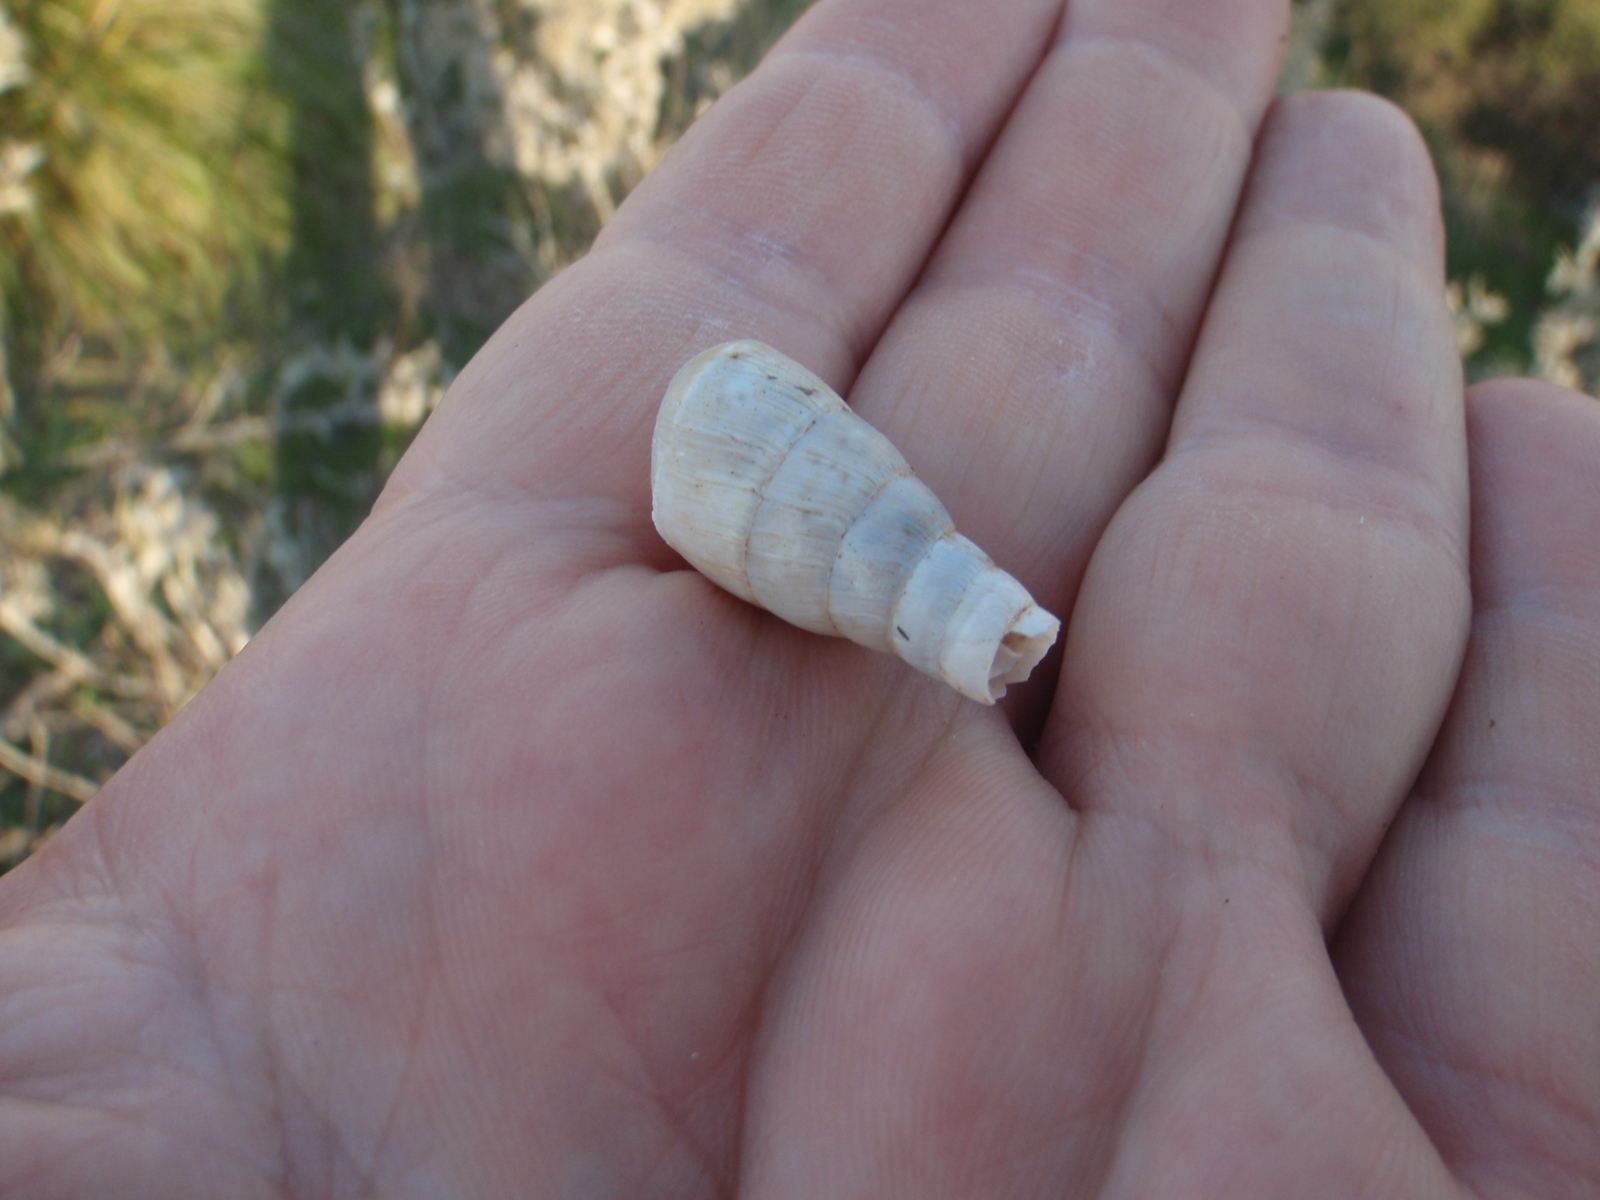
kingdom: Animalia
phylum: Mollusca
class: Gastropoda
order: Stylommatophora
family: Achatinidae
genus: Rumina
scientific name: Rumina decollata
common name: Decollate snail
